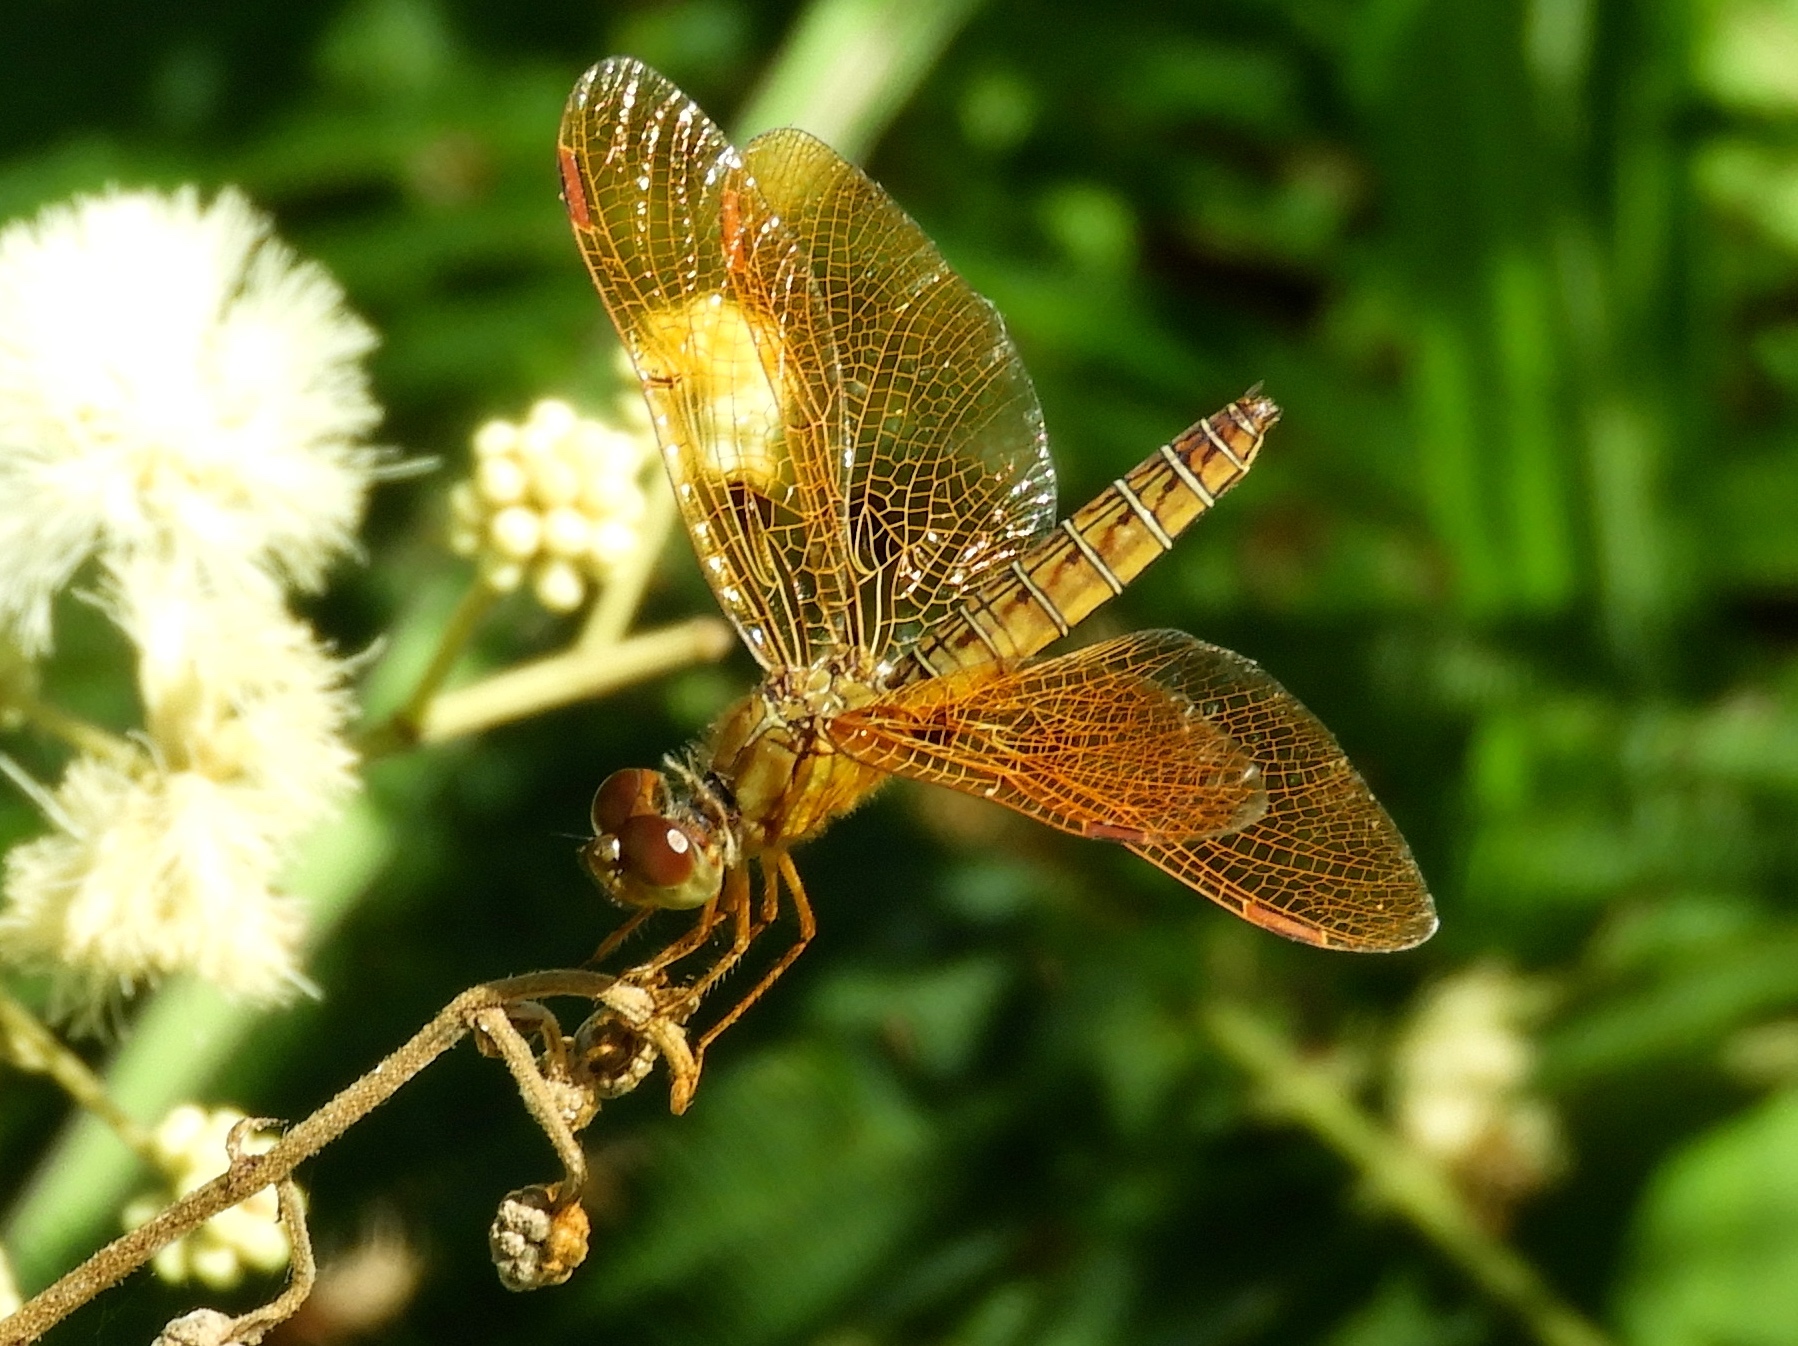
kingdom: Animalia
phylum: Arthropoda
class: Insecta
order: Odonata
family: Libellulidae
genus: Perithemis
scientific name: Perithemis intensa
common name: Mexican amberwing
